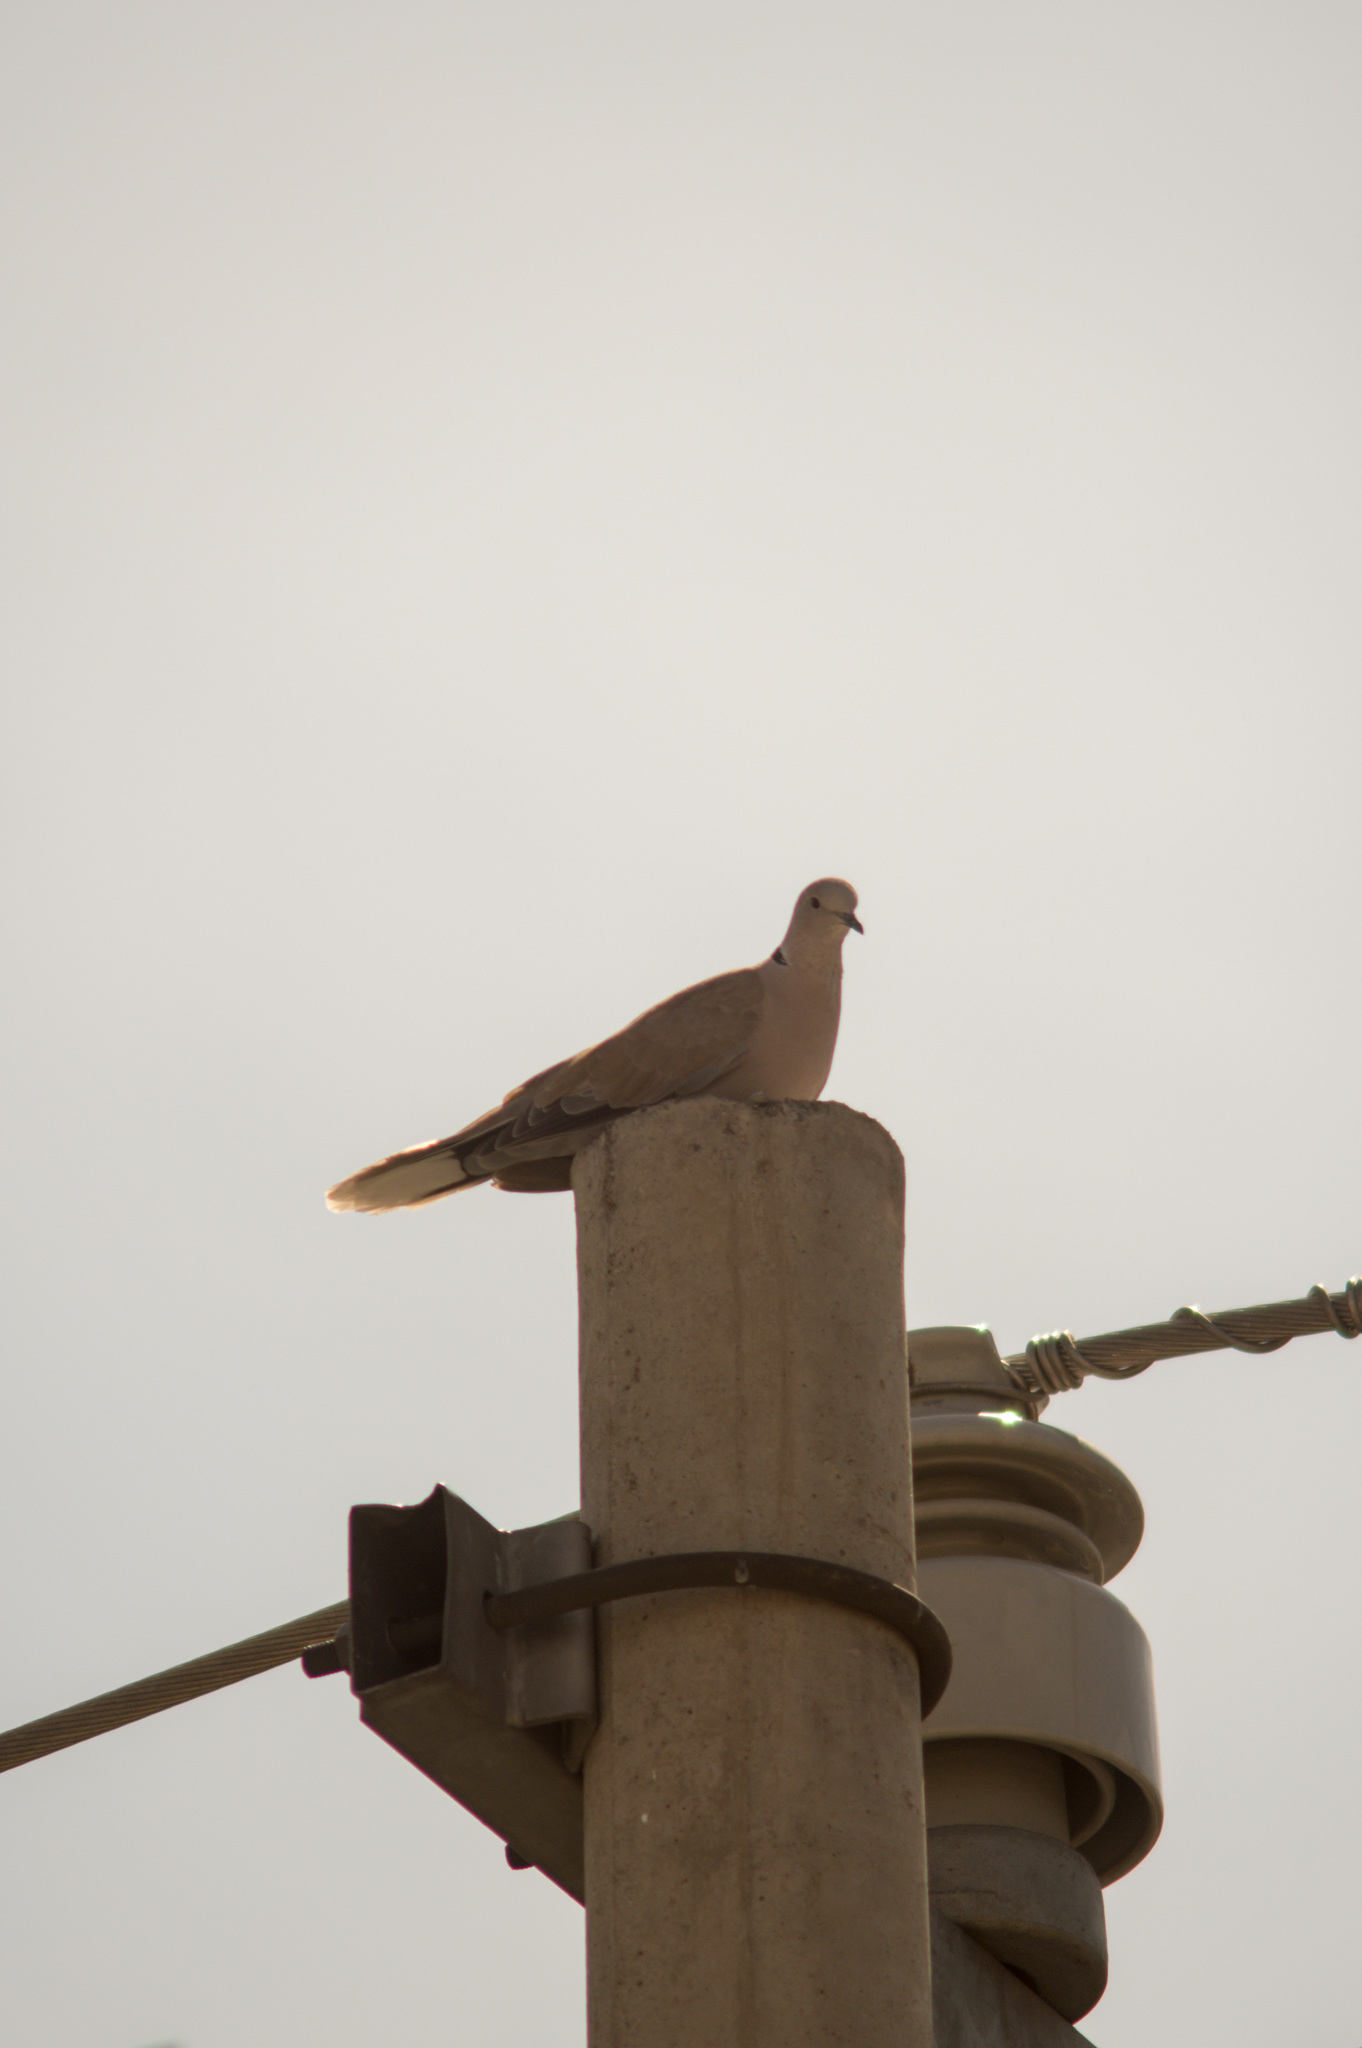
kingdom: Animalia
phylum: Chordata
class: Aves
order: Columbiformes
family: Columbidae
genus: Streptopelia
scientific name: Streptopelia decaocto
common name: Eurasian collared dove
